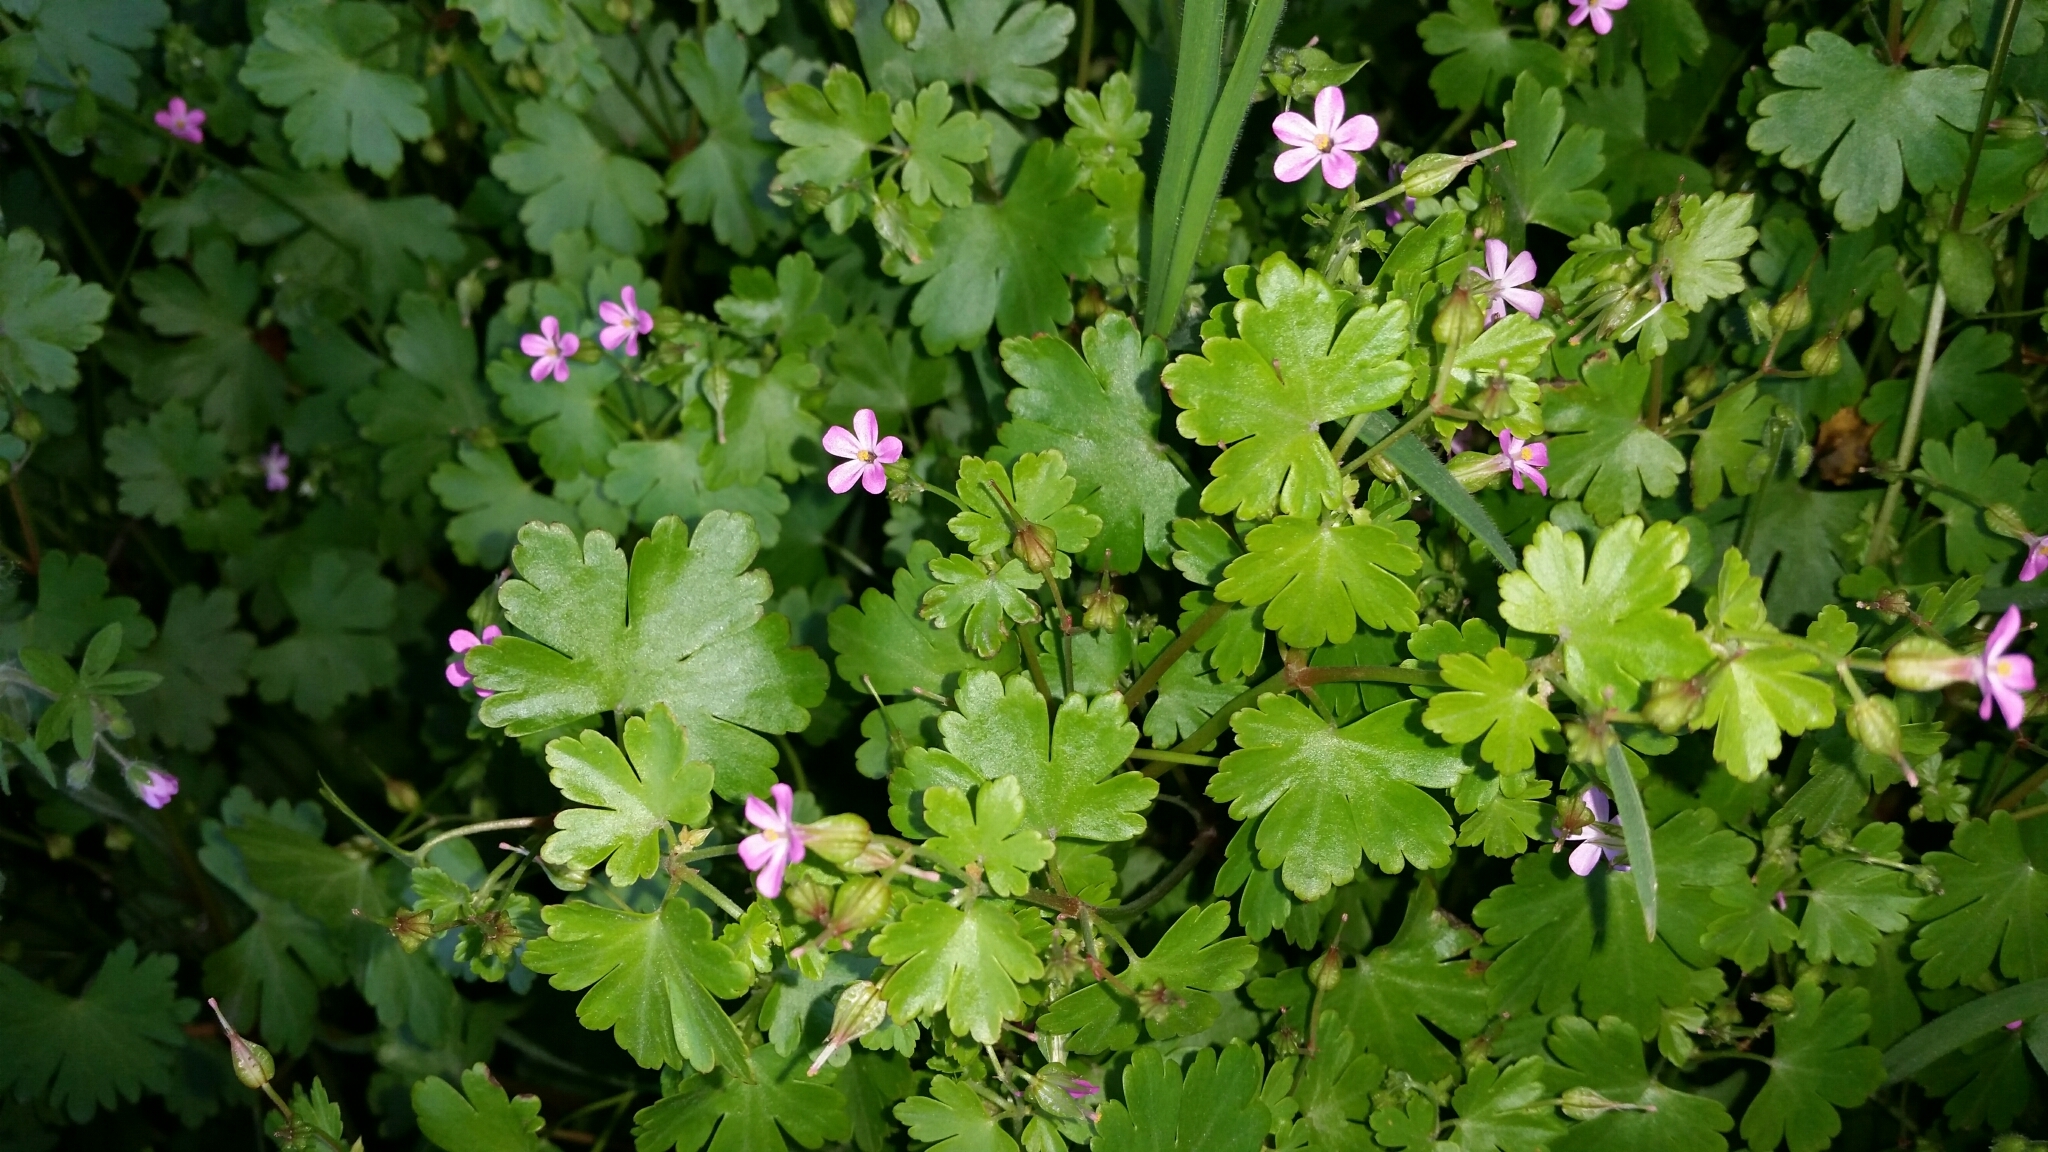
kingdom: Plantae
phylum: Tracheophyta
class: Magnoliopsida
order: Geraniales
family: Geraniaceae
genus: Geranium
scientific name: Geranium lucidum
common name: Shining crane's-bill
